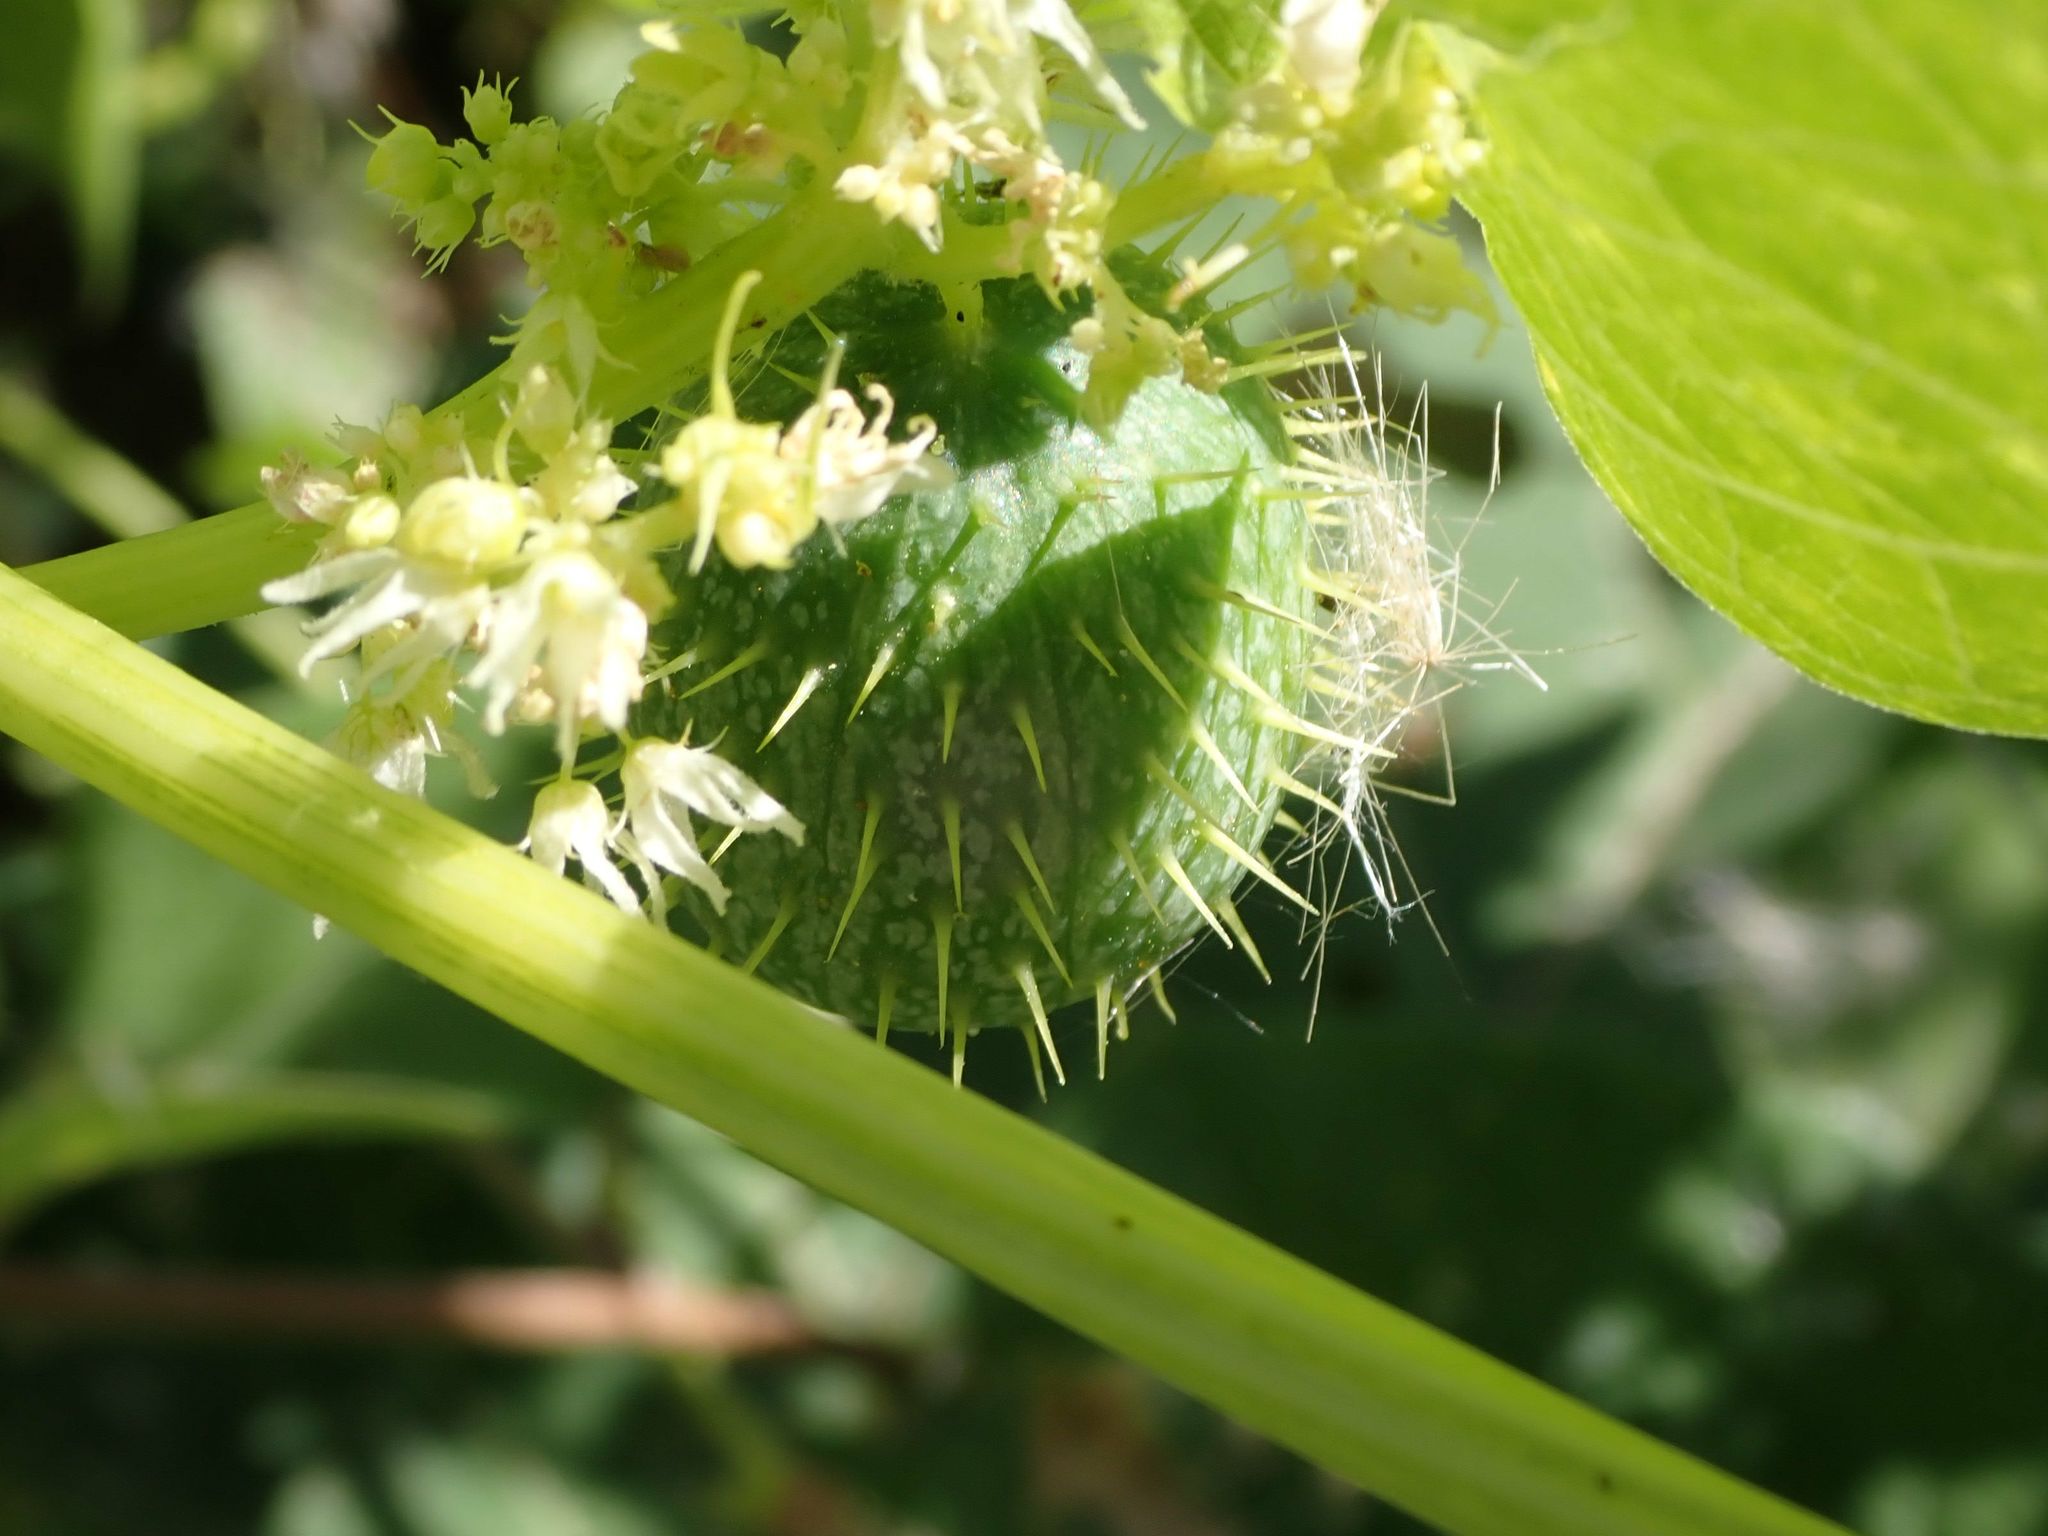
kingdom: Plantae
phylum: Tracheophyta
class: Magnoliopsida
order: Cucurbitales
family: Cucurbitaceae
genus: Echinocystis
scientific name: Echinocystis lobata
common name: Wild cucumber
